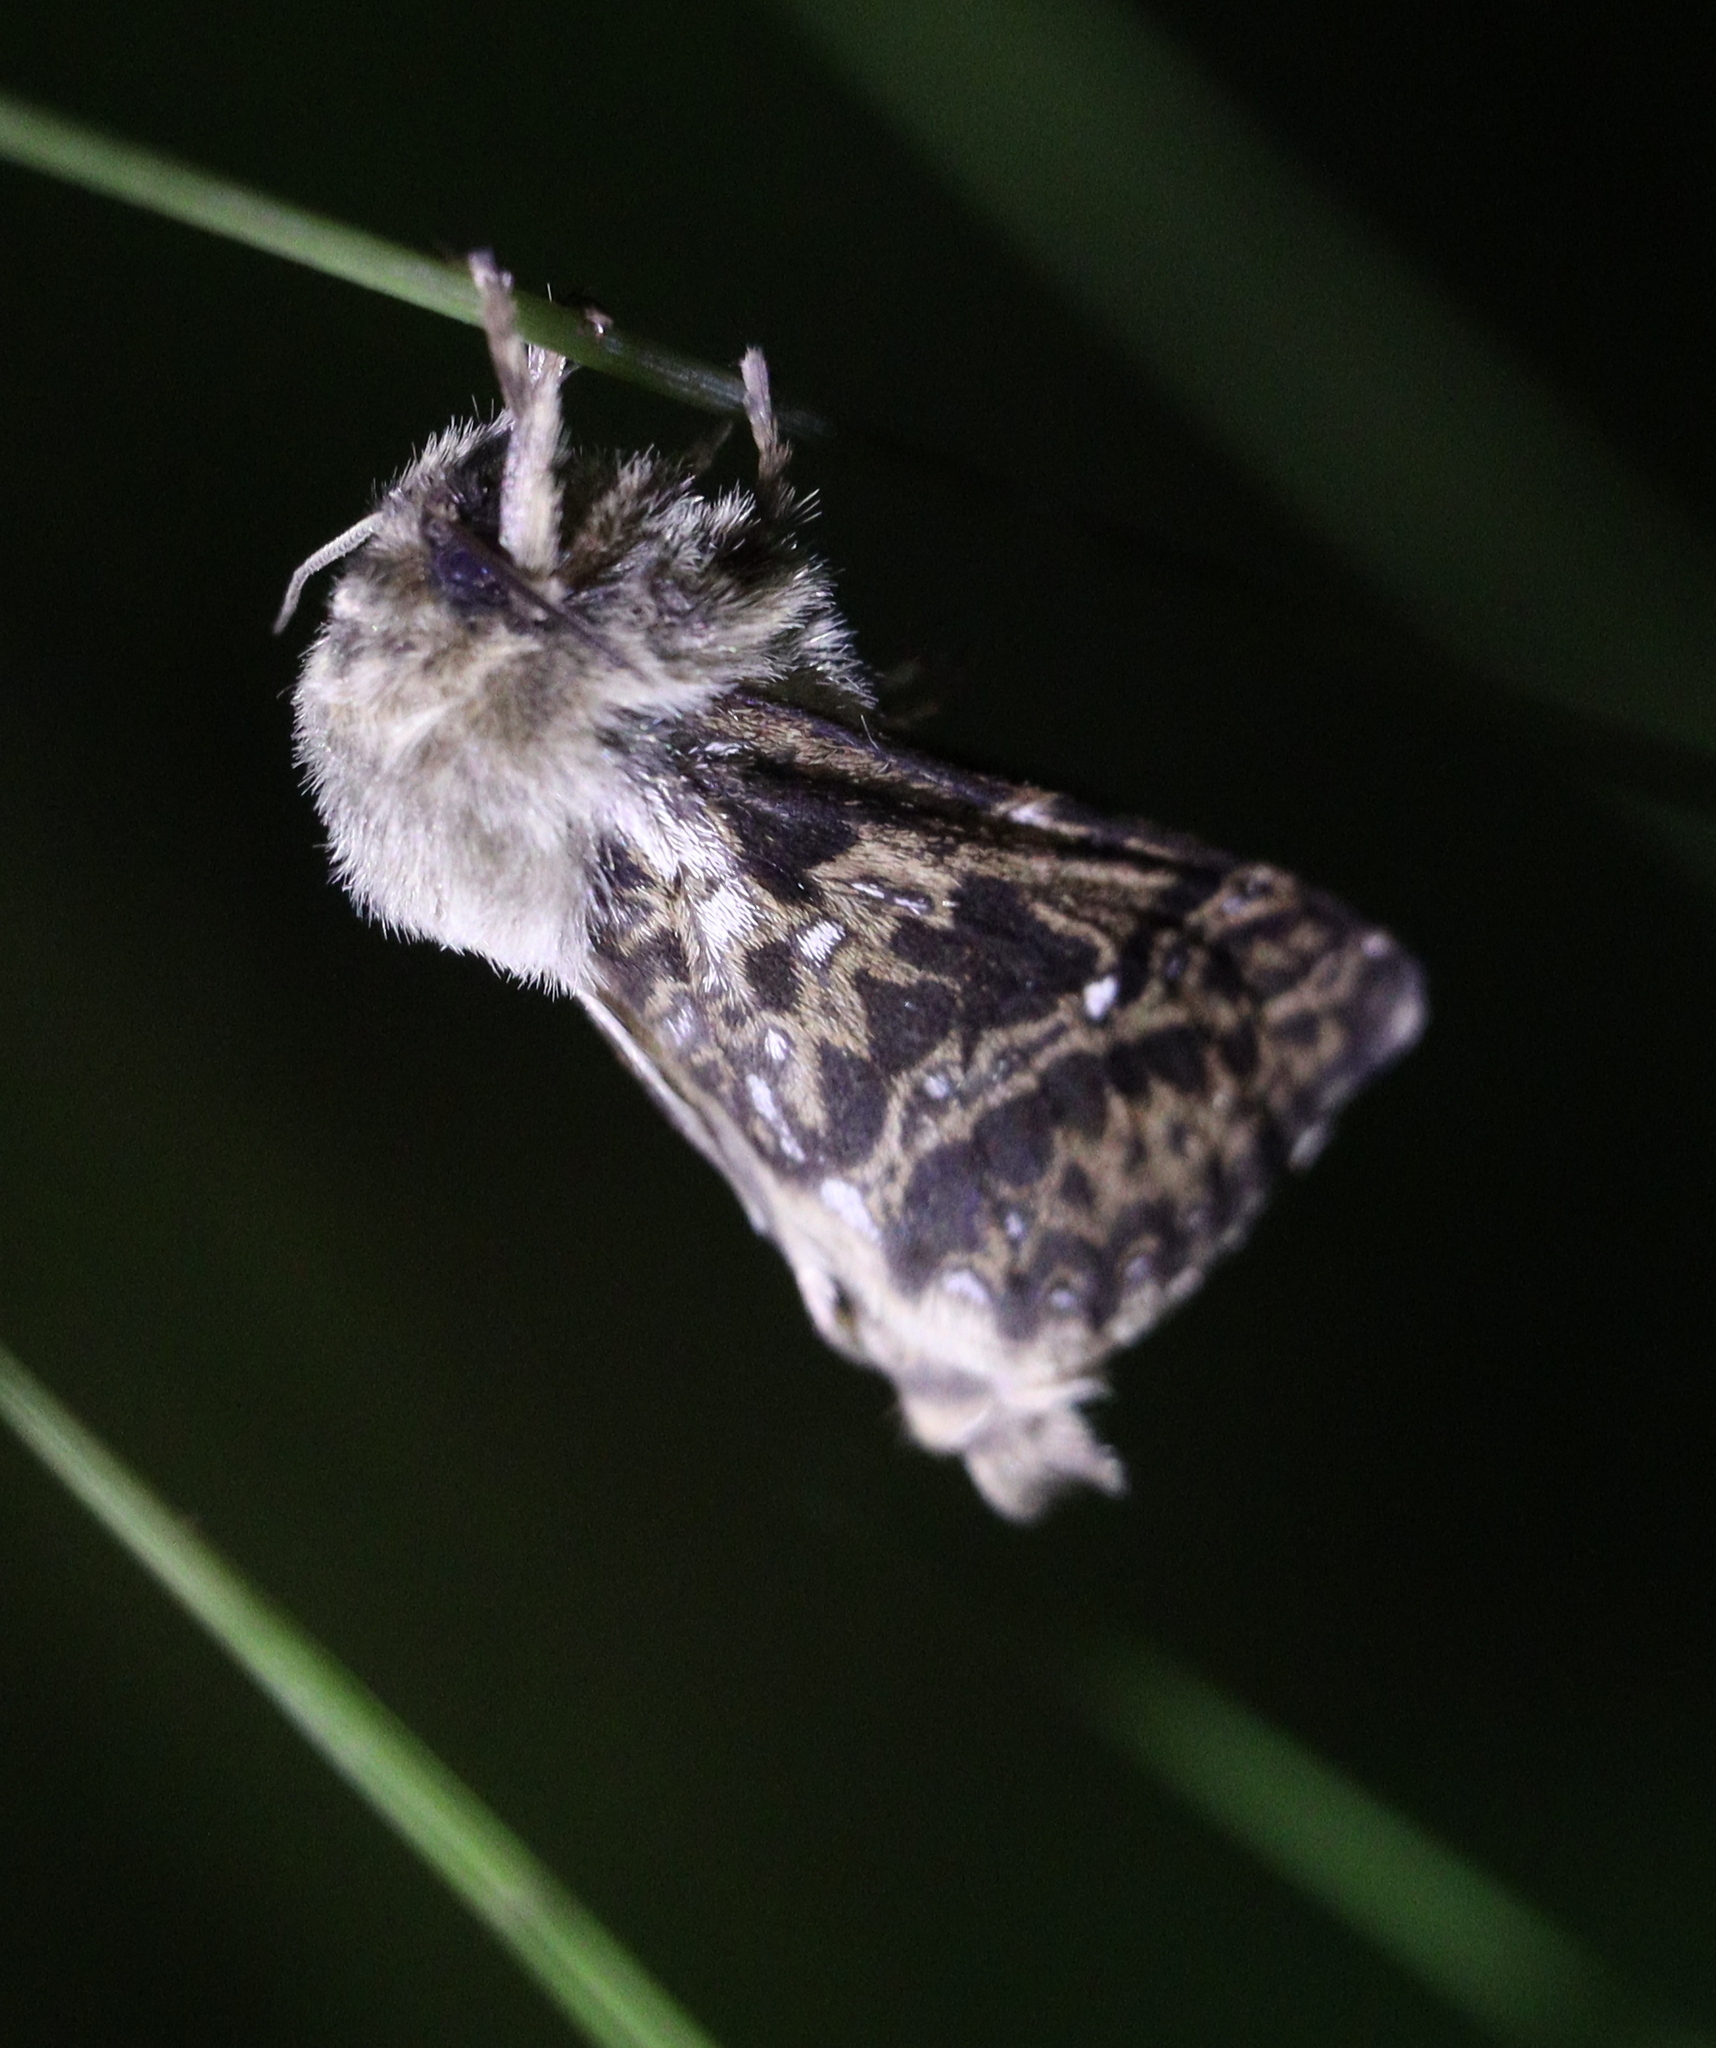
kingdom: Animalia
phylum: Arthropoda
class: Insecta
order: Lepidoptera
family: Hepialidae
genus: Pharmacis
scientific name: Pharmacis carna
